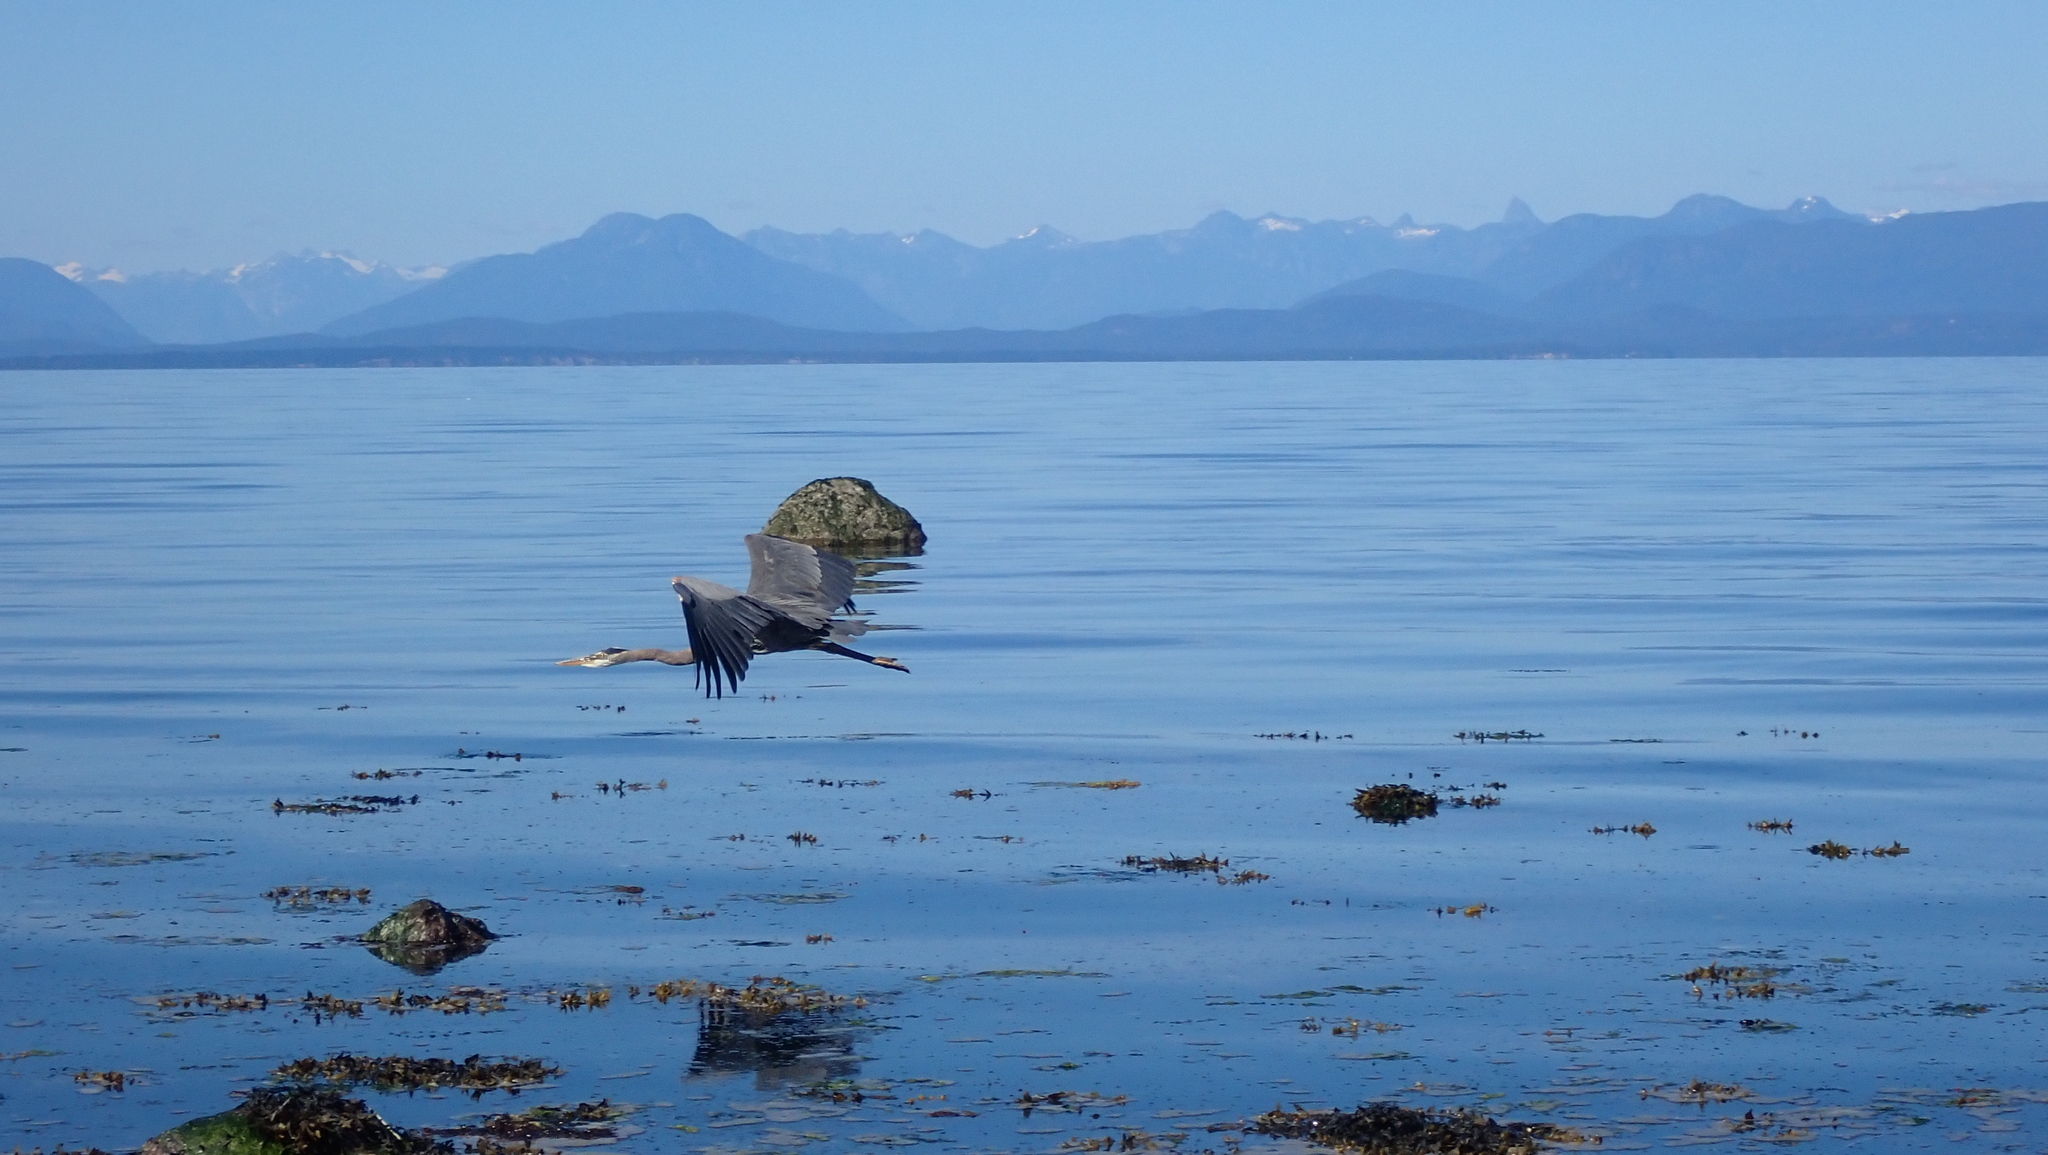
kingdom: Animalia
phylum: Chordata
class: Aves
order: Pelecaniformes
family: Ardeidae
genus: Ardea
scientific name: Ardea herodias
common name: Great blue heron
